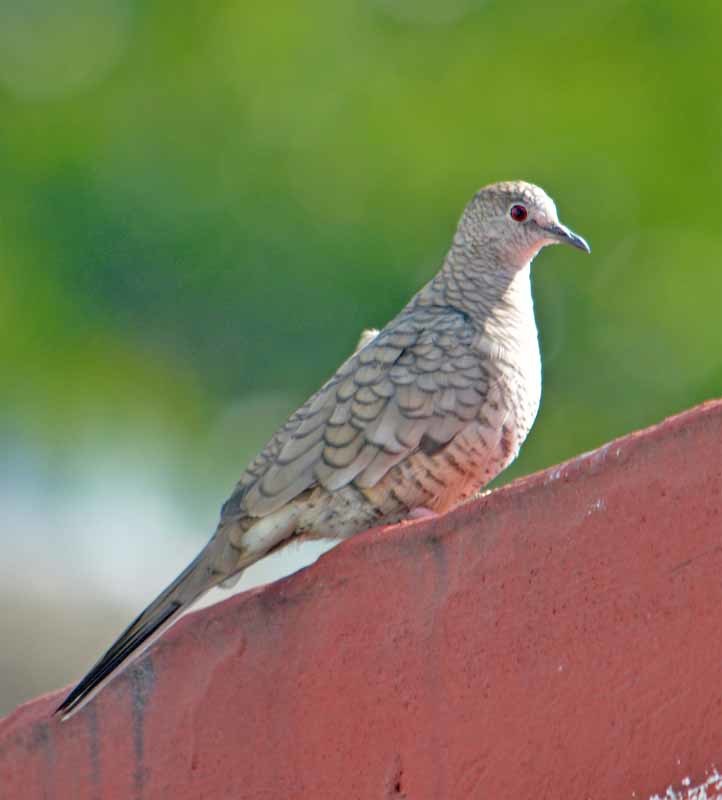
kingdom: Animalia
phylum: Chordata
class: Aves
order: Columbiformes
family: Columbidae
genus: Columbina
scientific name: Columbina inca
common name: Inca dove
